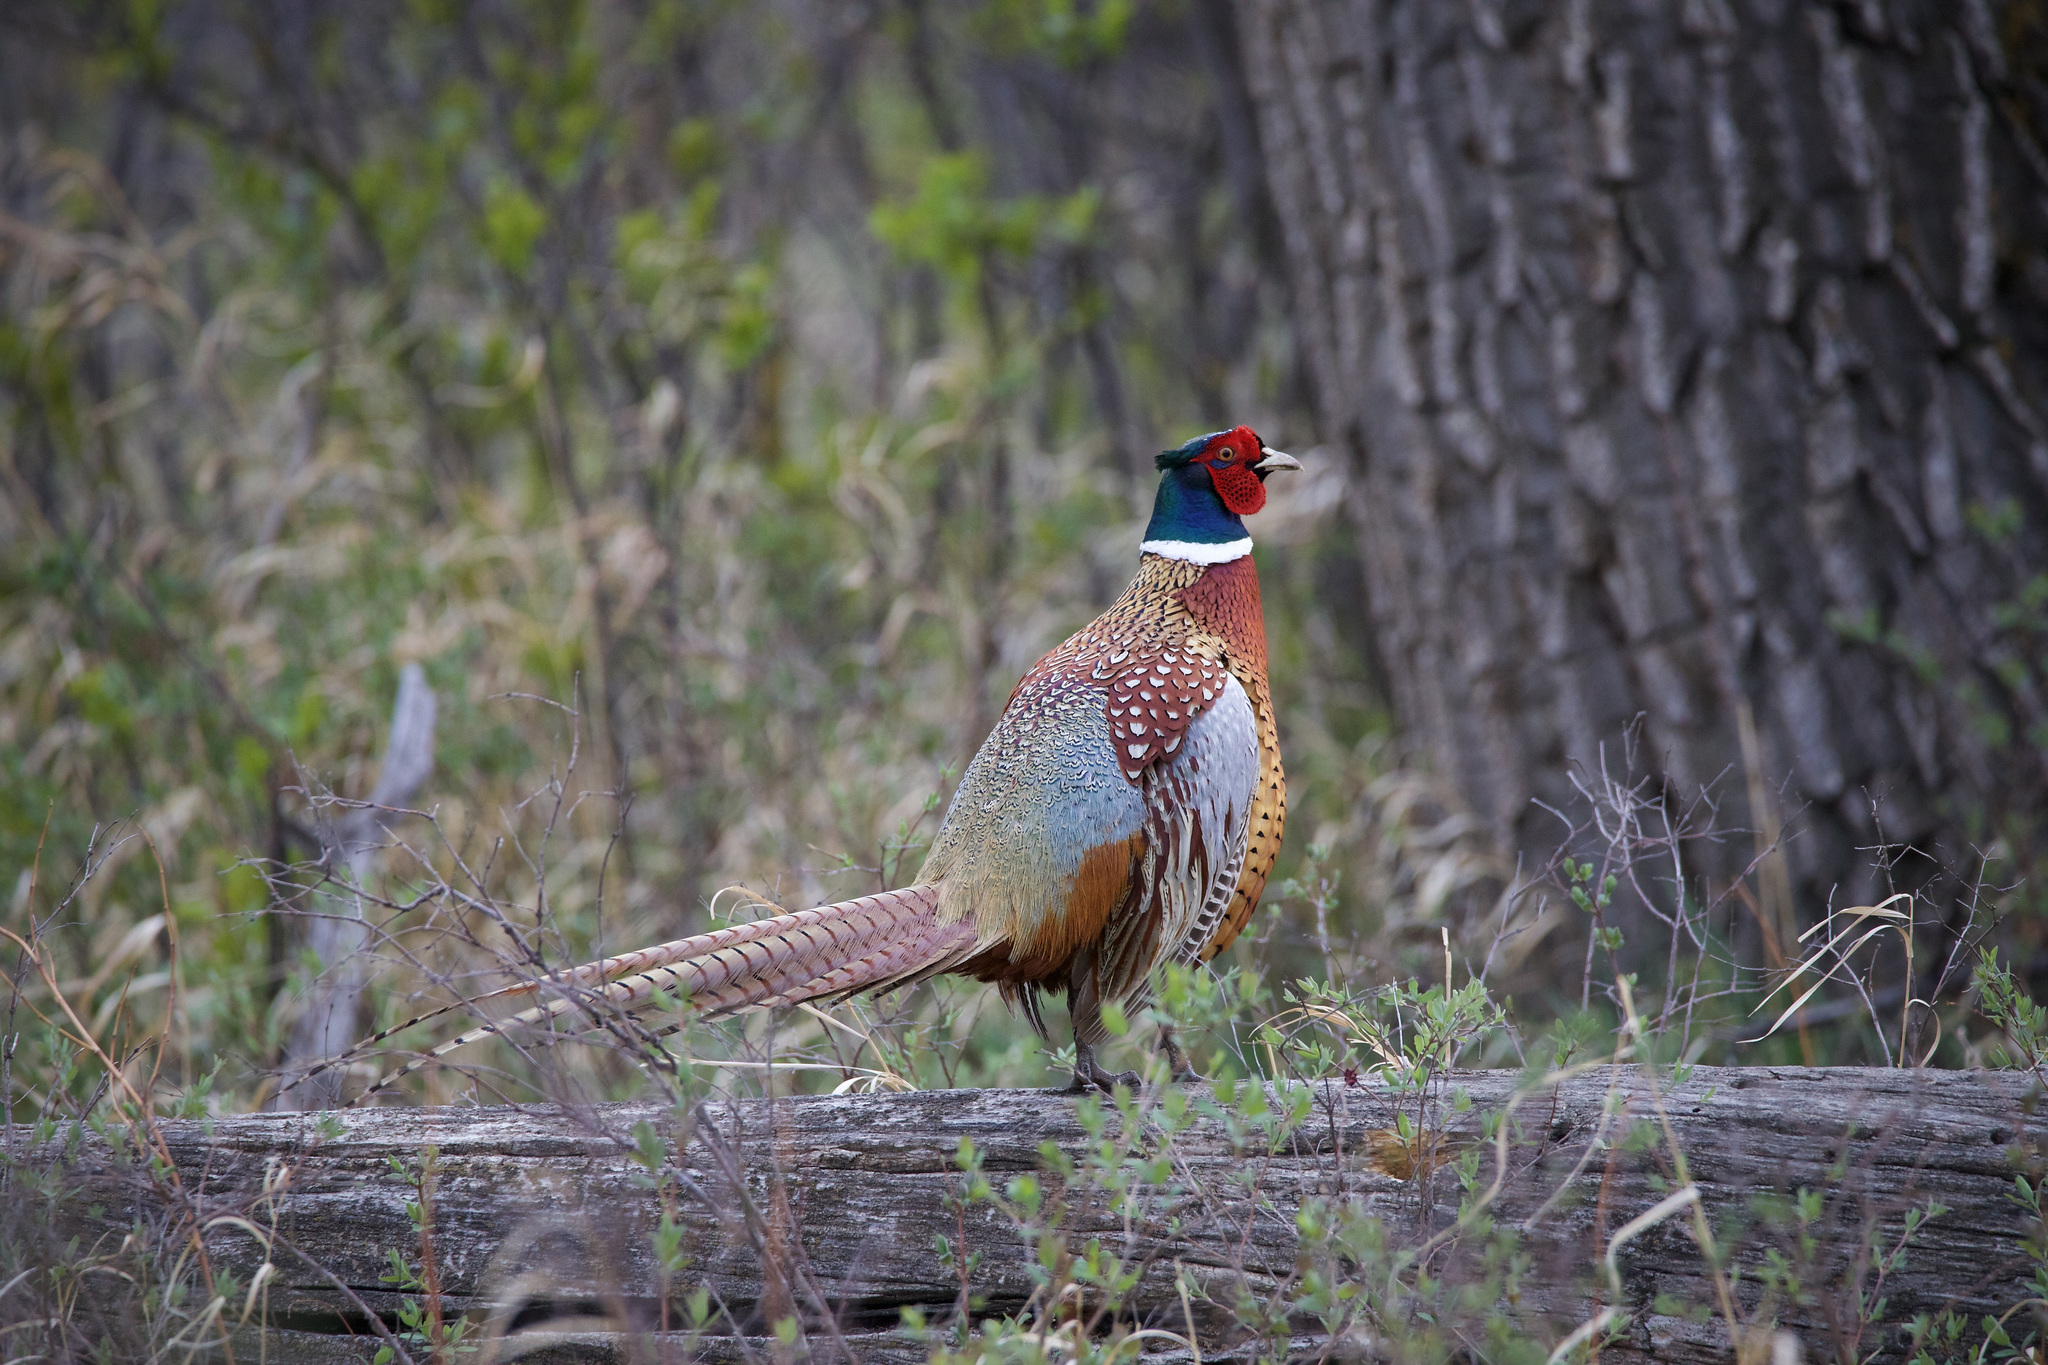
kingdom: Animalia
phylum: Chordata
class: Aves
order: Galliformes
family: Phasianidae
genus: Phasianus
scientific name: Phasianus colchicus
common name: Common pheasant
